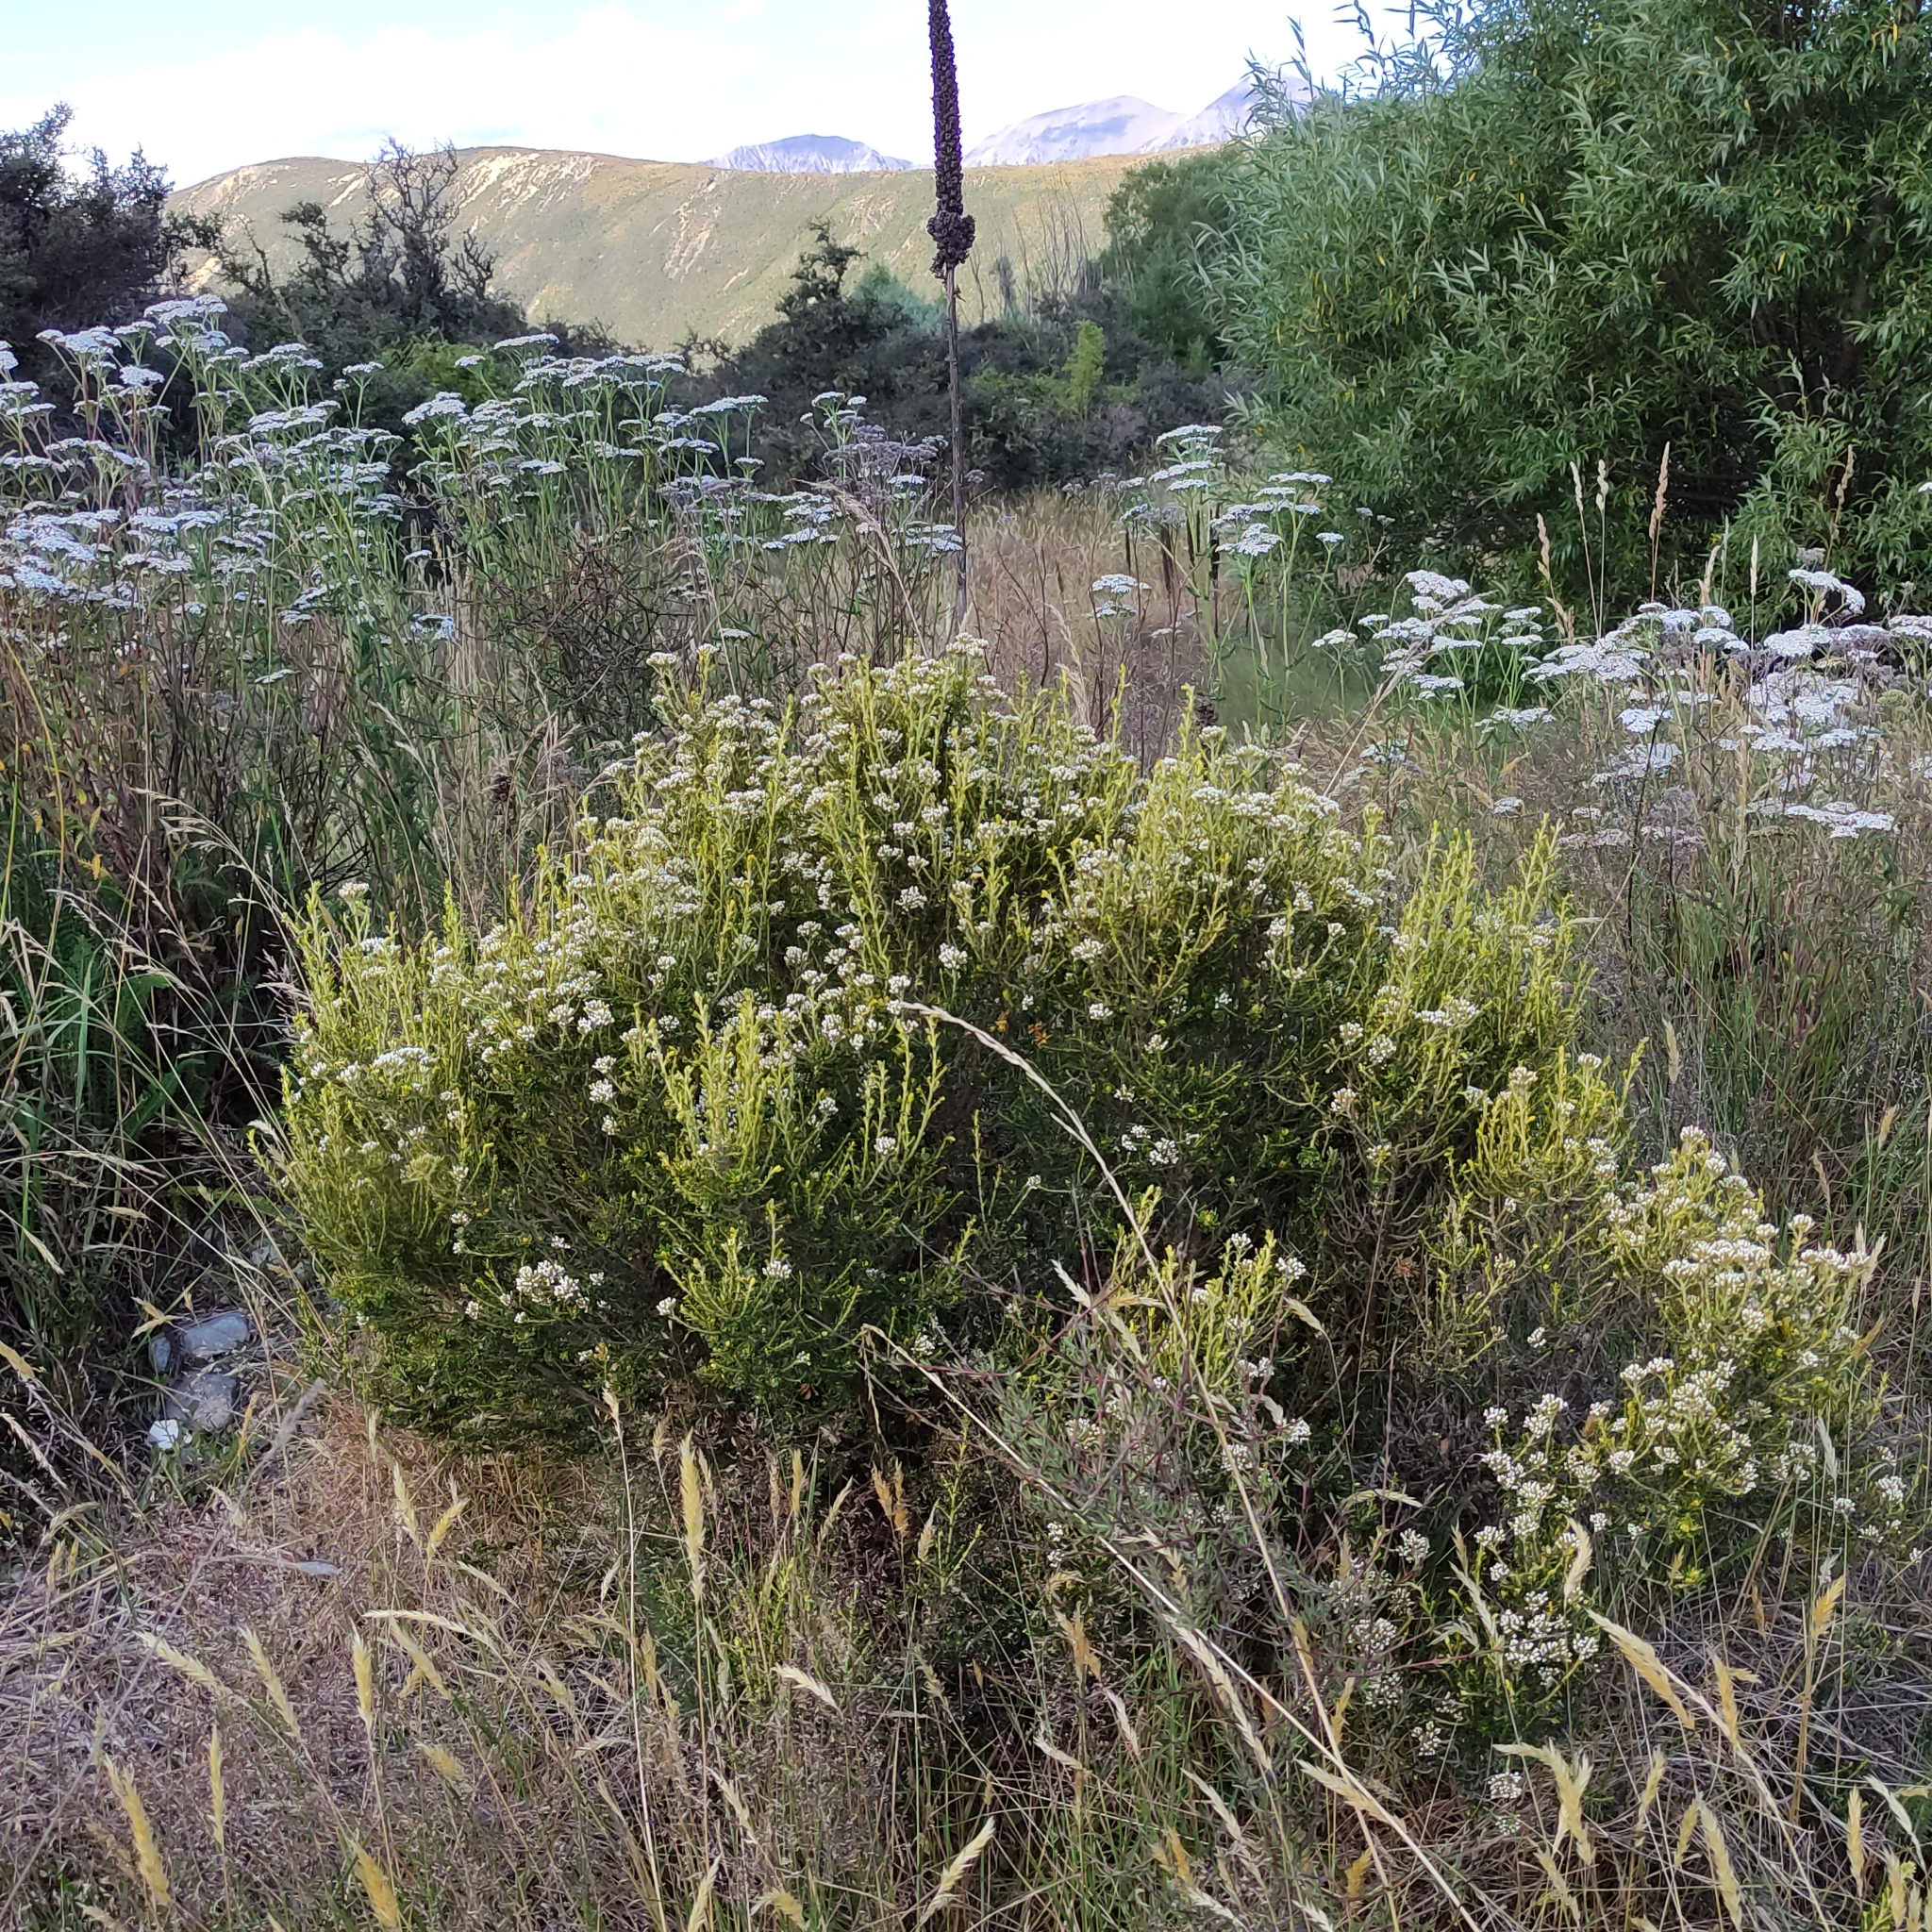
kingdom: Plantae
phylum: Tracheophyta
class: Magnoliopsida
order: Asterales
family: Asteraceae
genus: Ozothamnus
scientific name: Ozothamnus leptophyllus
